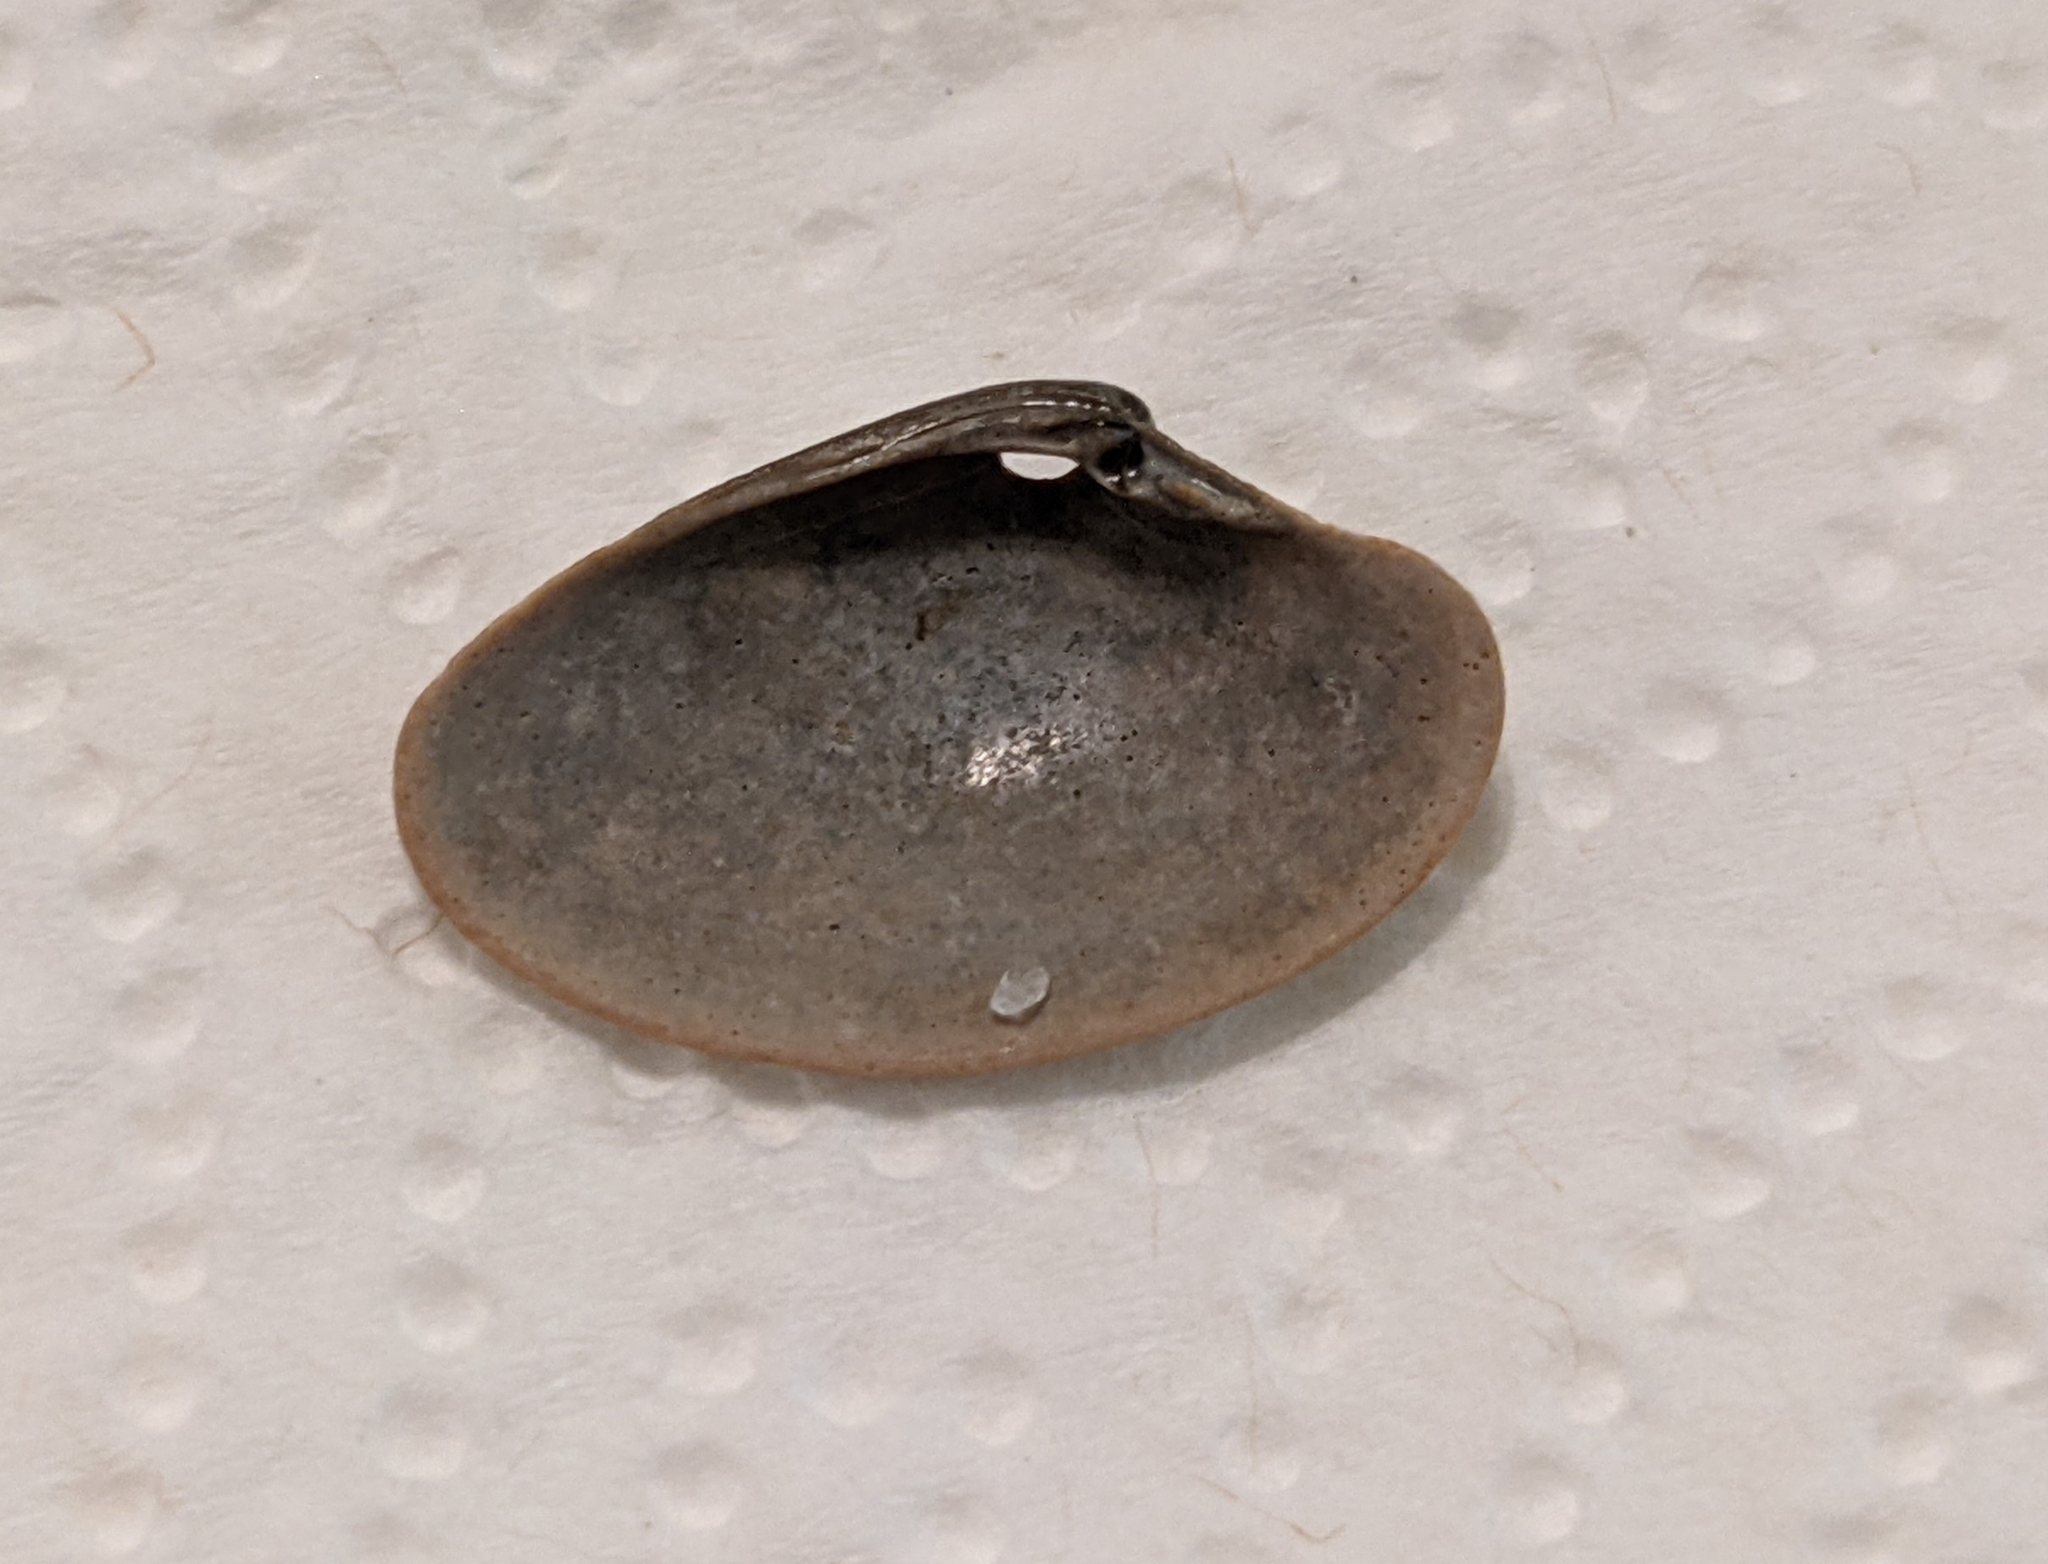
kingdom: Animalia
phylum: Mollusca
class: Bivalvia
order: Venerida
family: Veneridae
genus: Macrocallista
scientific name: Macrocallista nimbosa
